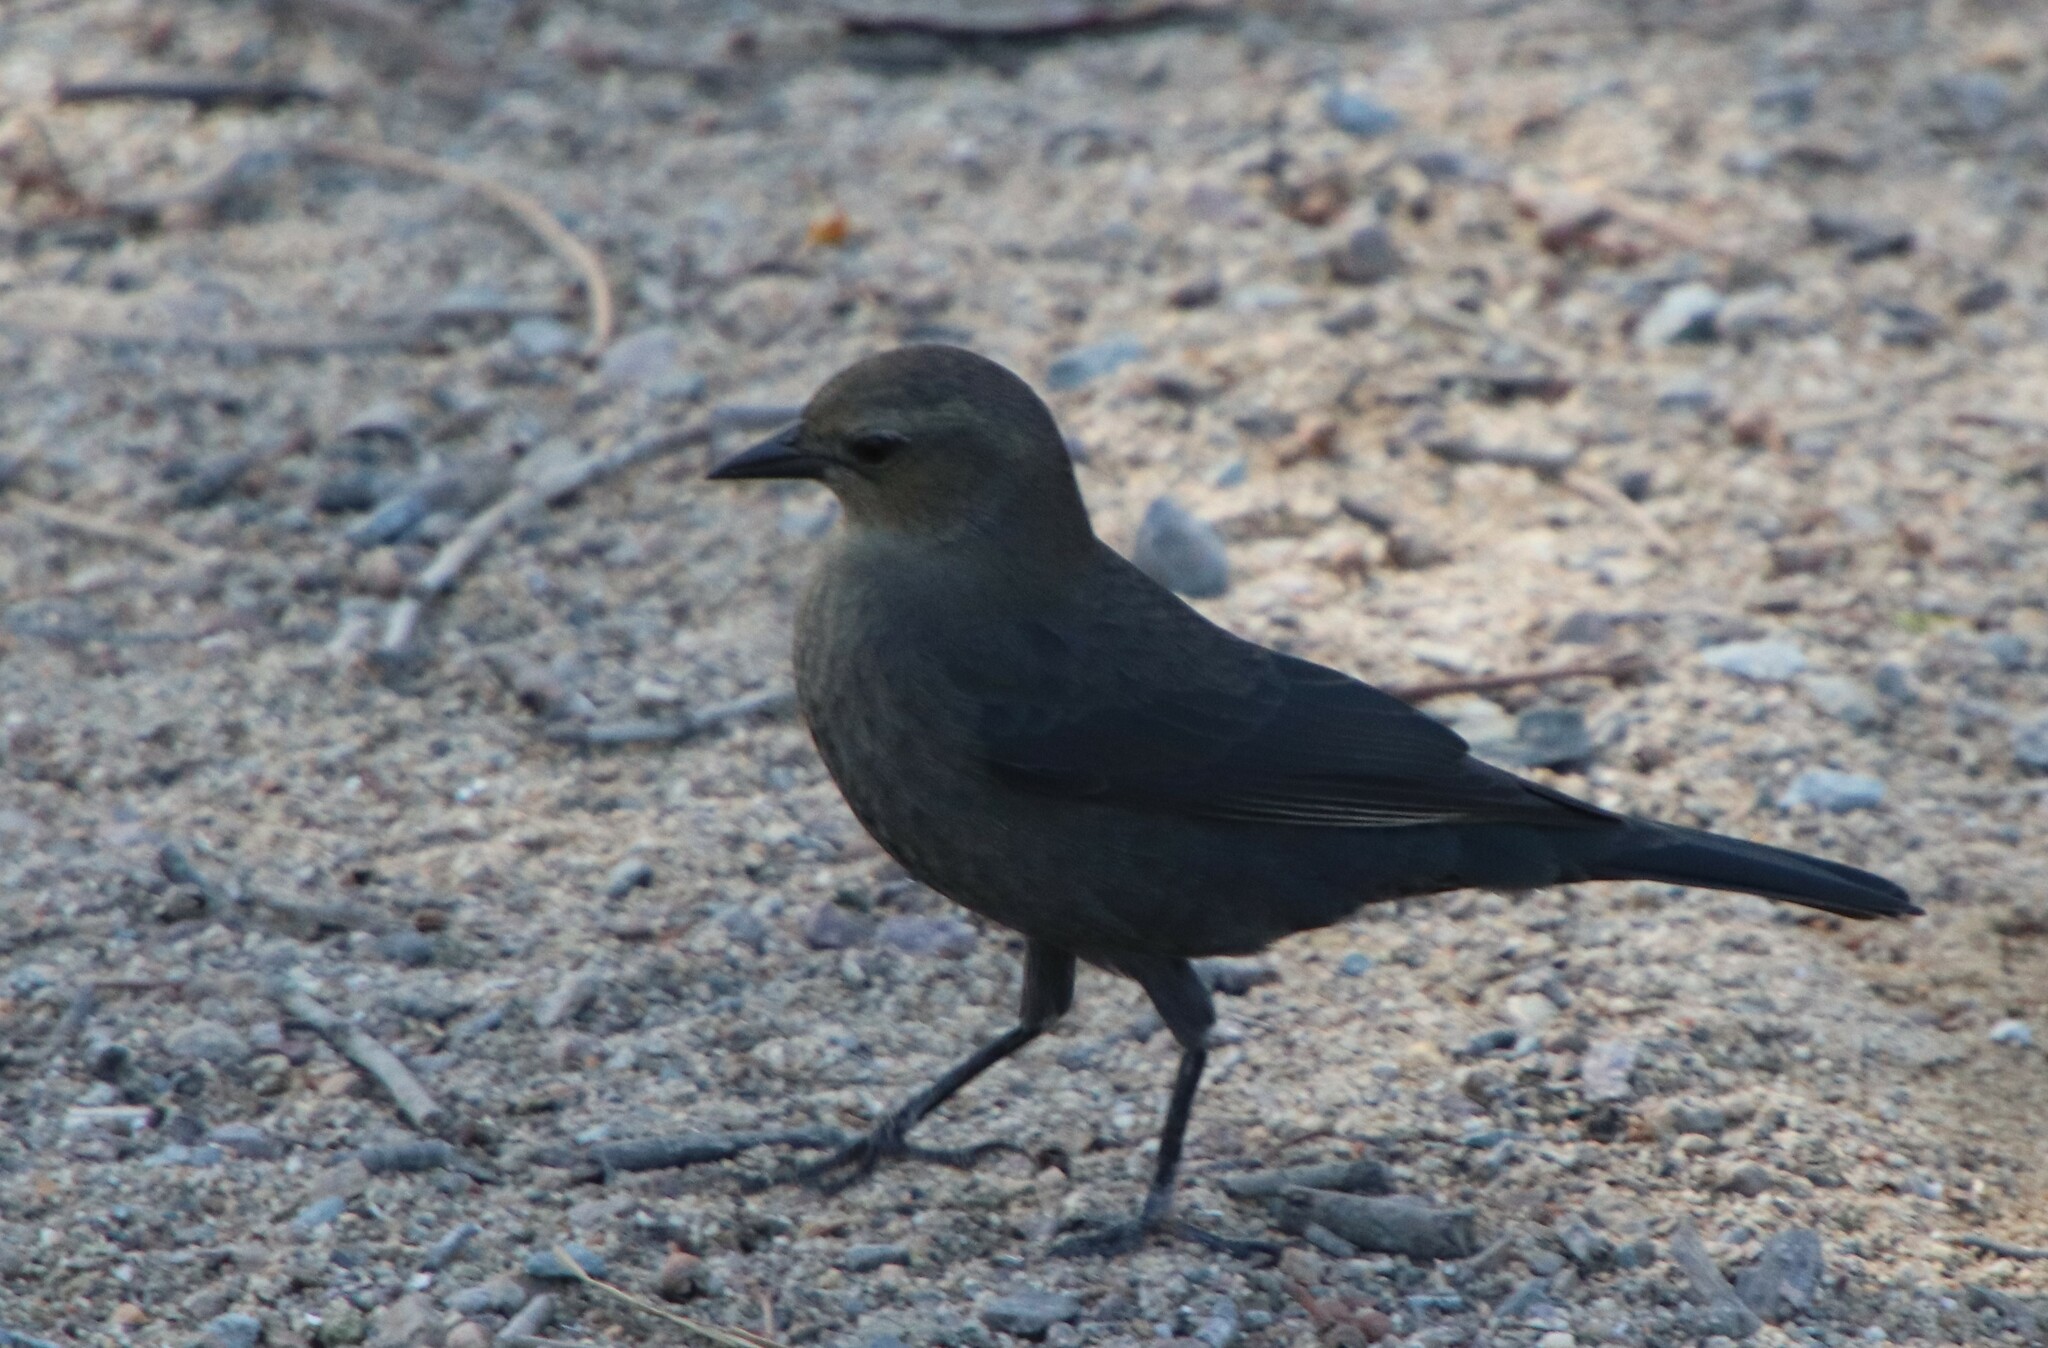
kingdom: Animalia
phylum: Chordata
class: Aves
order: Passeriformes
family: Icteridae
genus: Euphagus
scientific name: Euphagus cyanocephalus
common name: Brewer's blackbird
